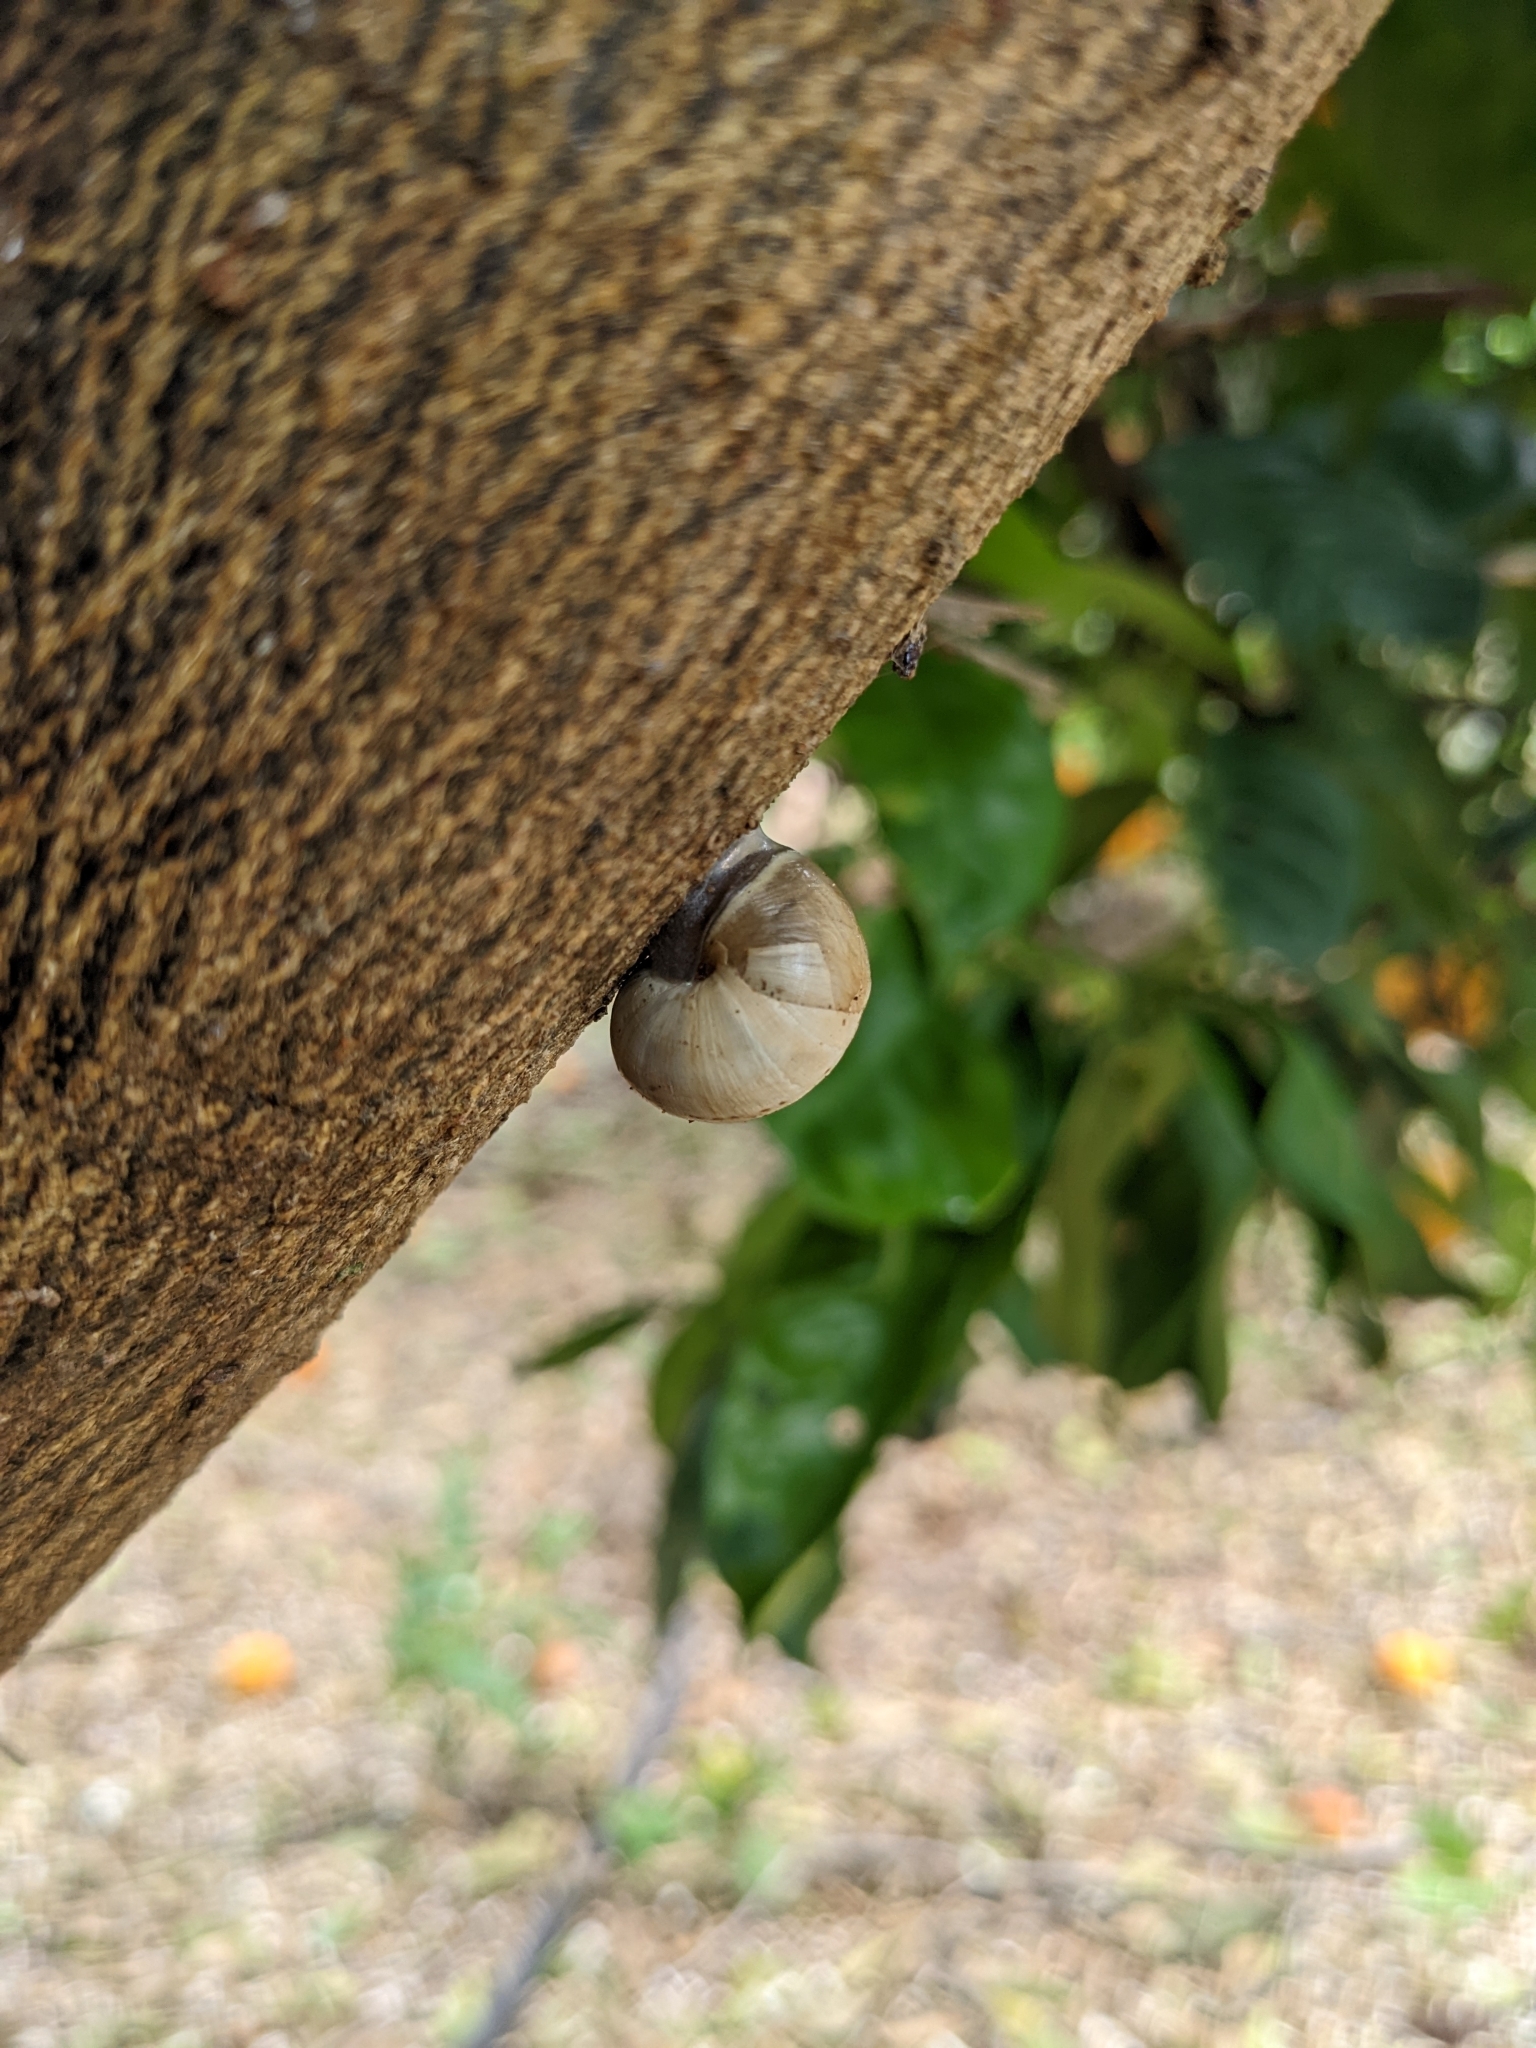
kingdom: Animalia
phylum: Mollusca
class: Gastropoda
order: Stylommatophora
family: Helicidae
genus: Theba
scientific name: Theba pisana
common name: White snail
